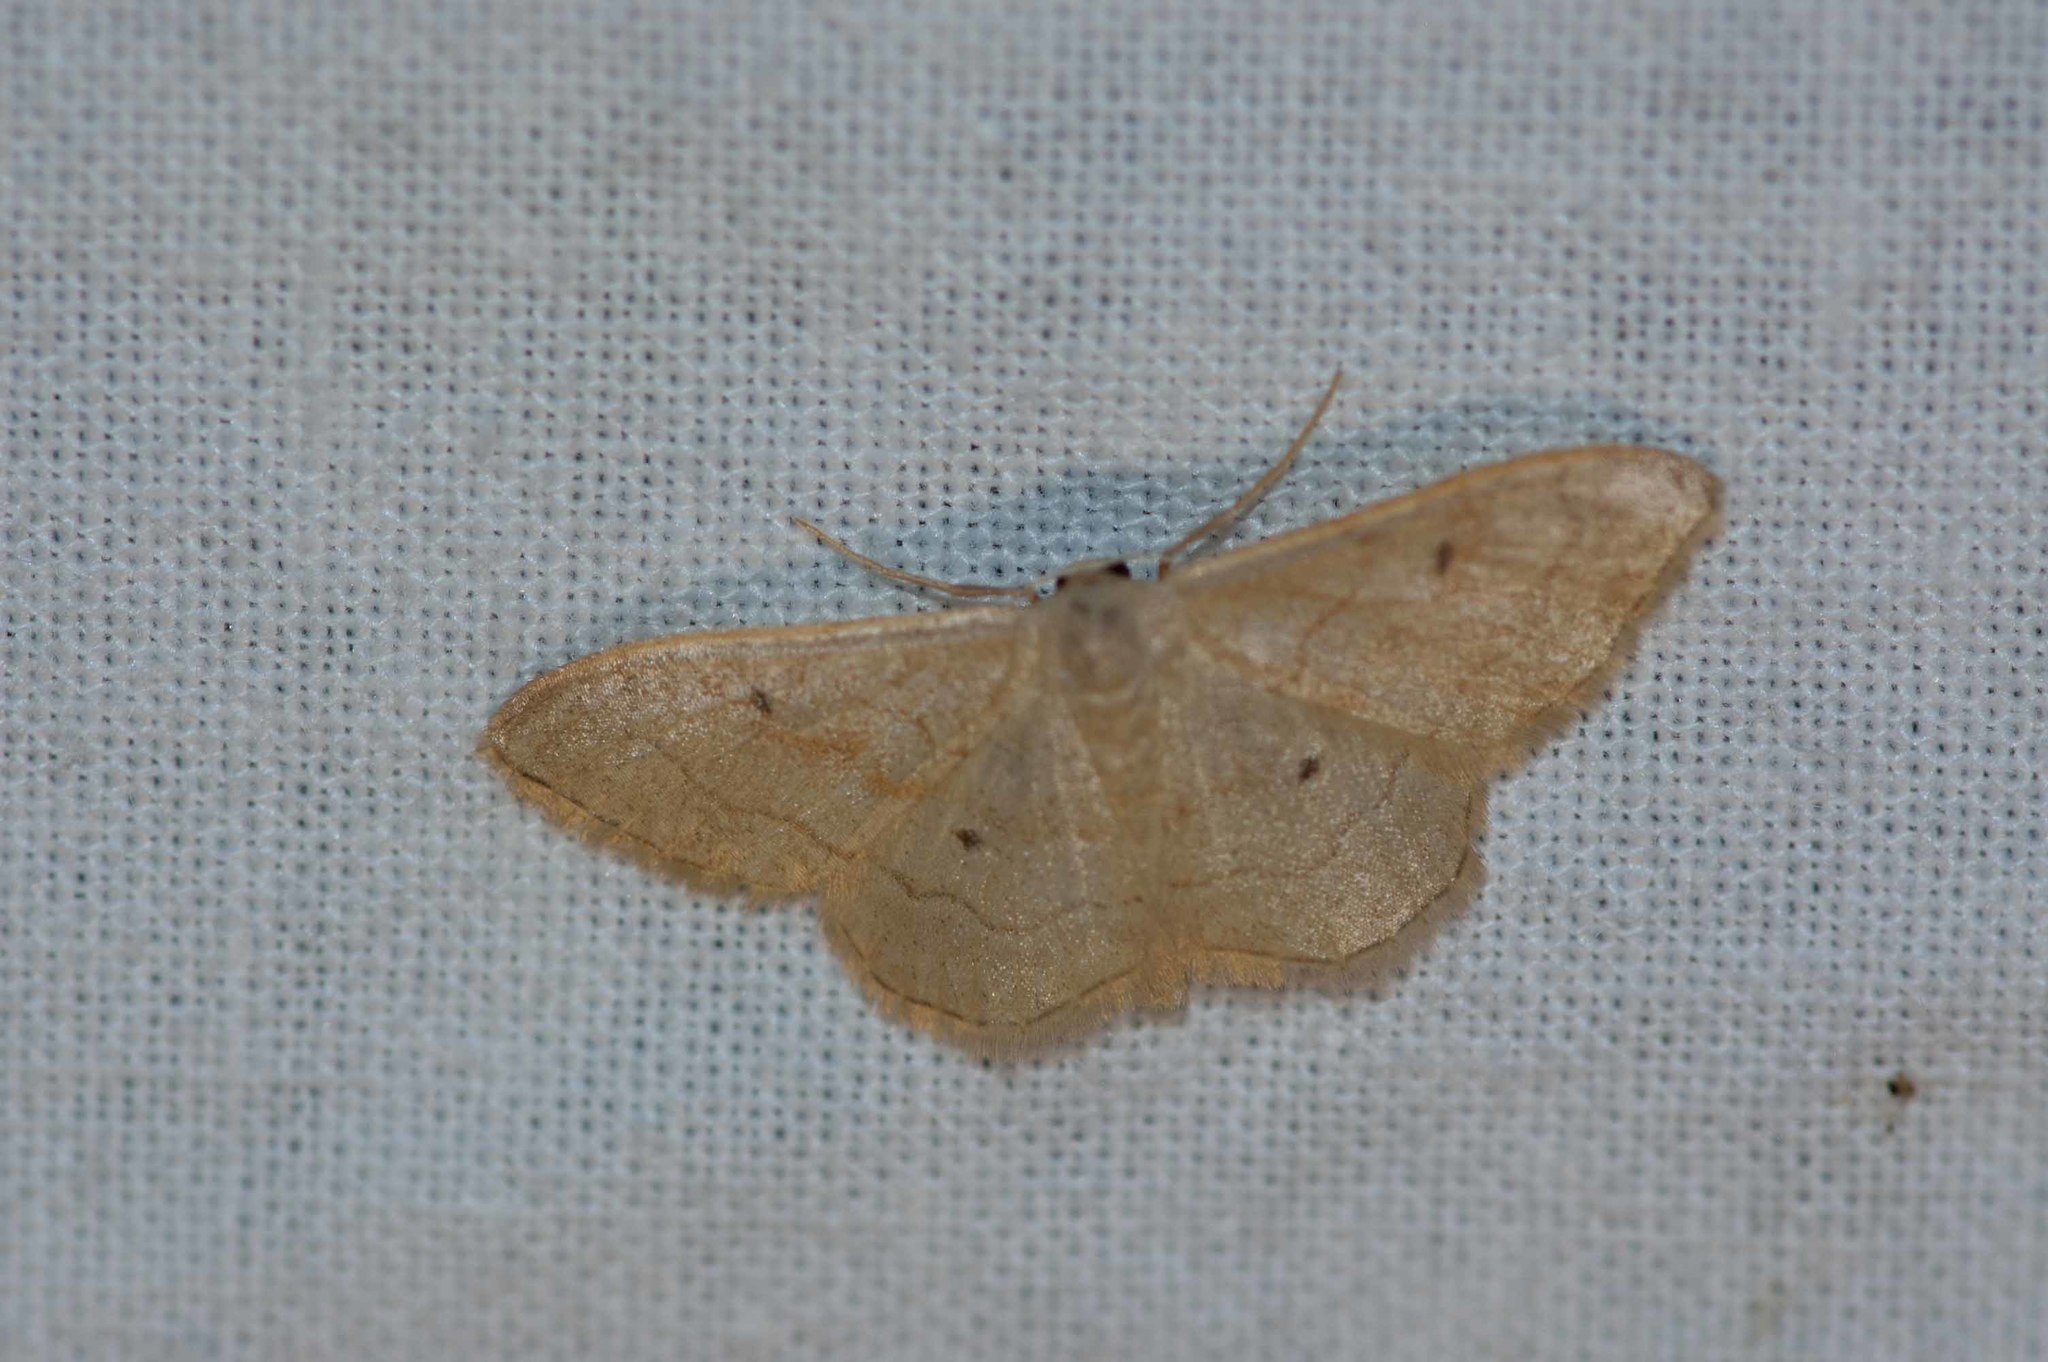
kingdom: Animalia
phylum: Arthropoda
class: Insecta
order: Lepidoptera
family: Geometridae
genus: Idaea
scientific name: Idaea bilinearia
